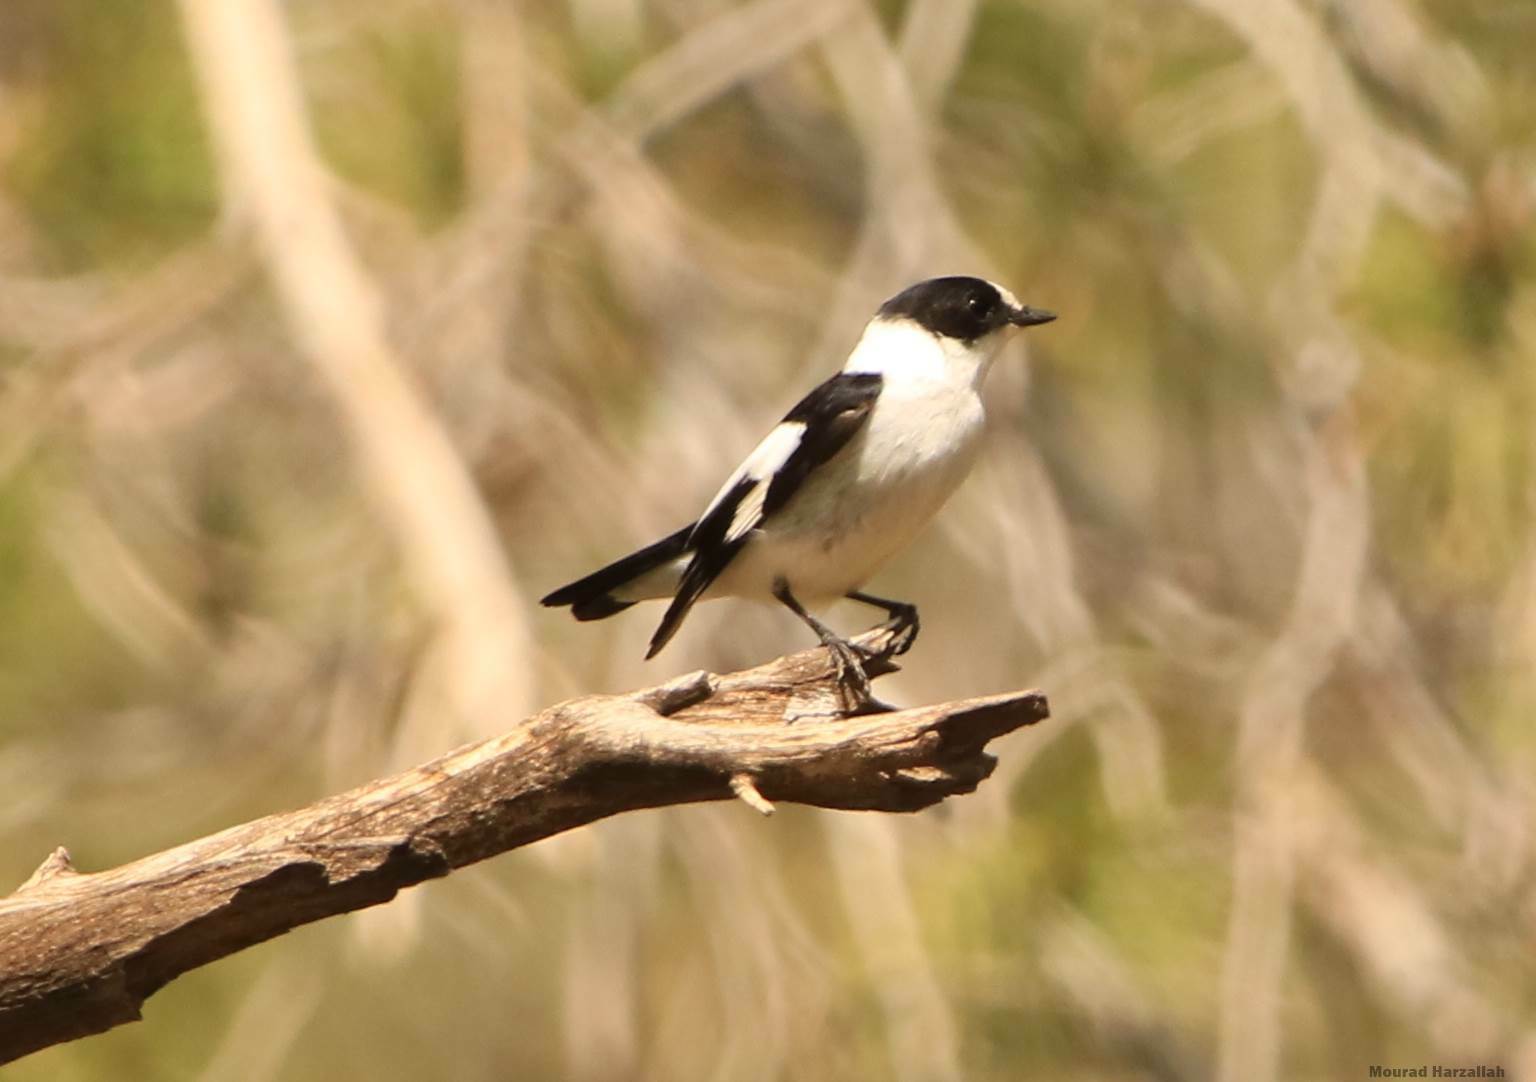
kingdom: Animalia
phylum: Chordata
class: Aves
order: Passeriformes
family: Muscicapidae
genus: Ficedula
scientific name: Ficedula albicollis
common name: Collared flycatcher
